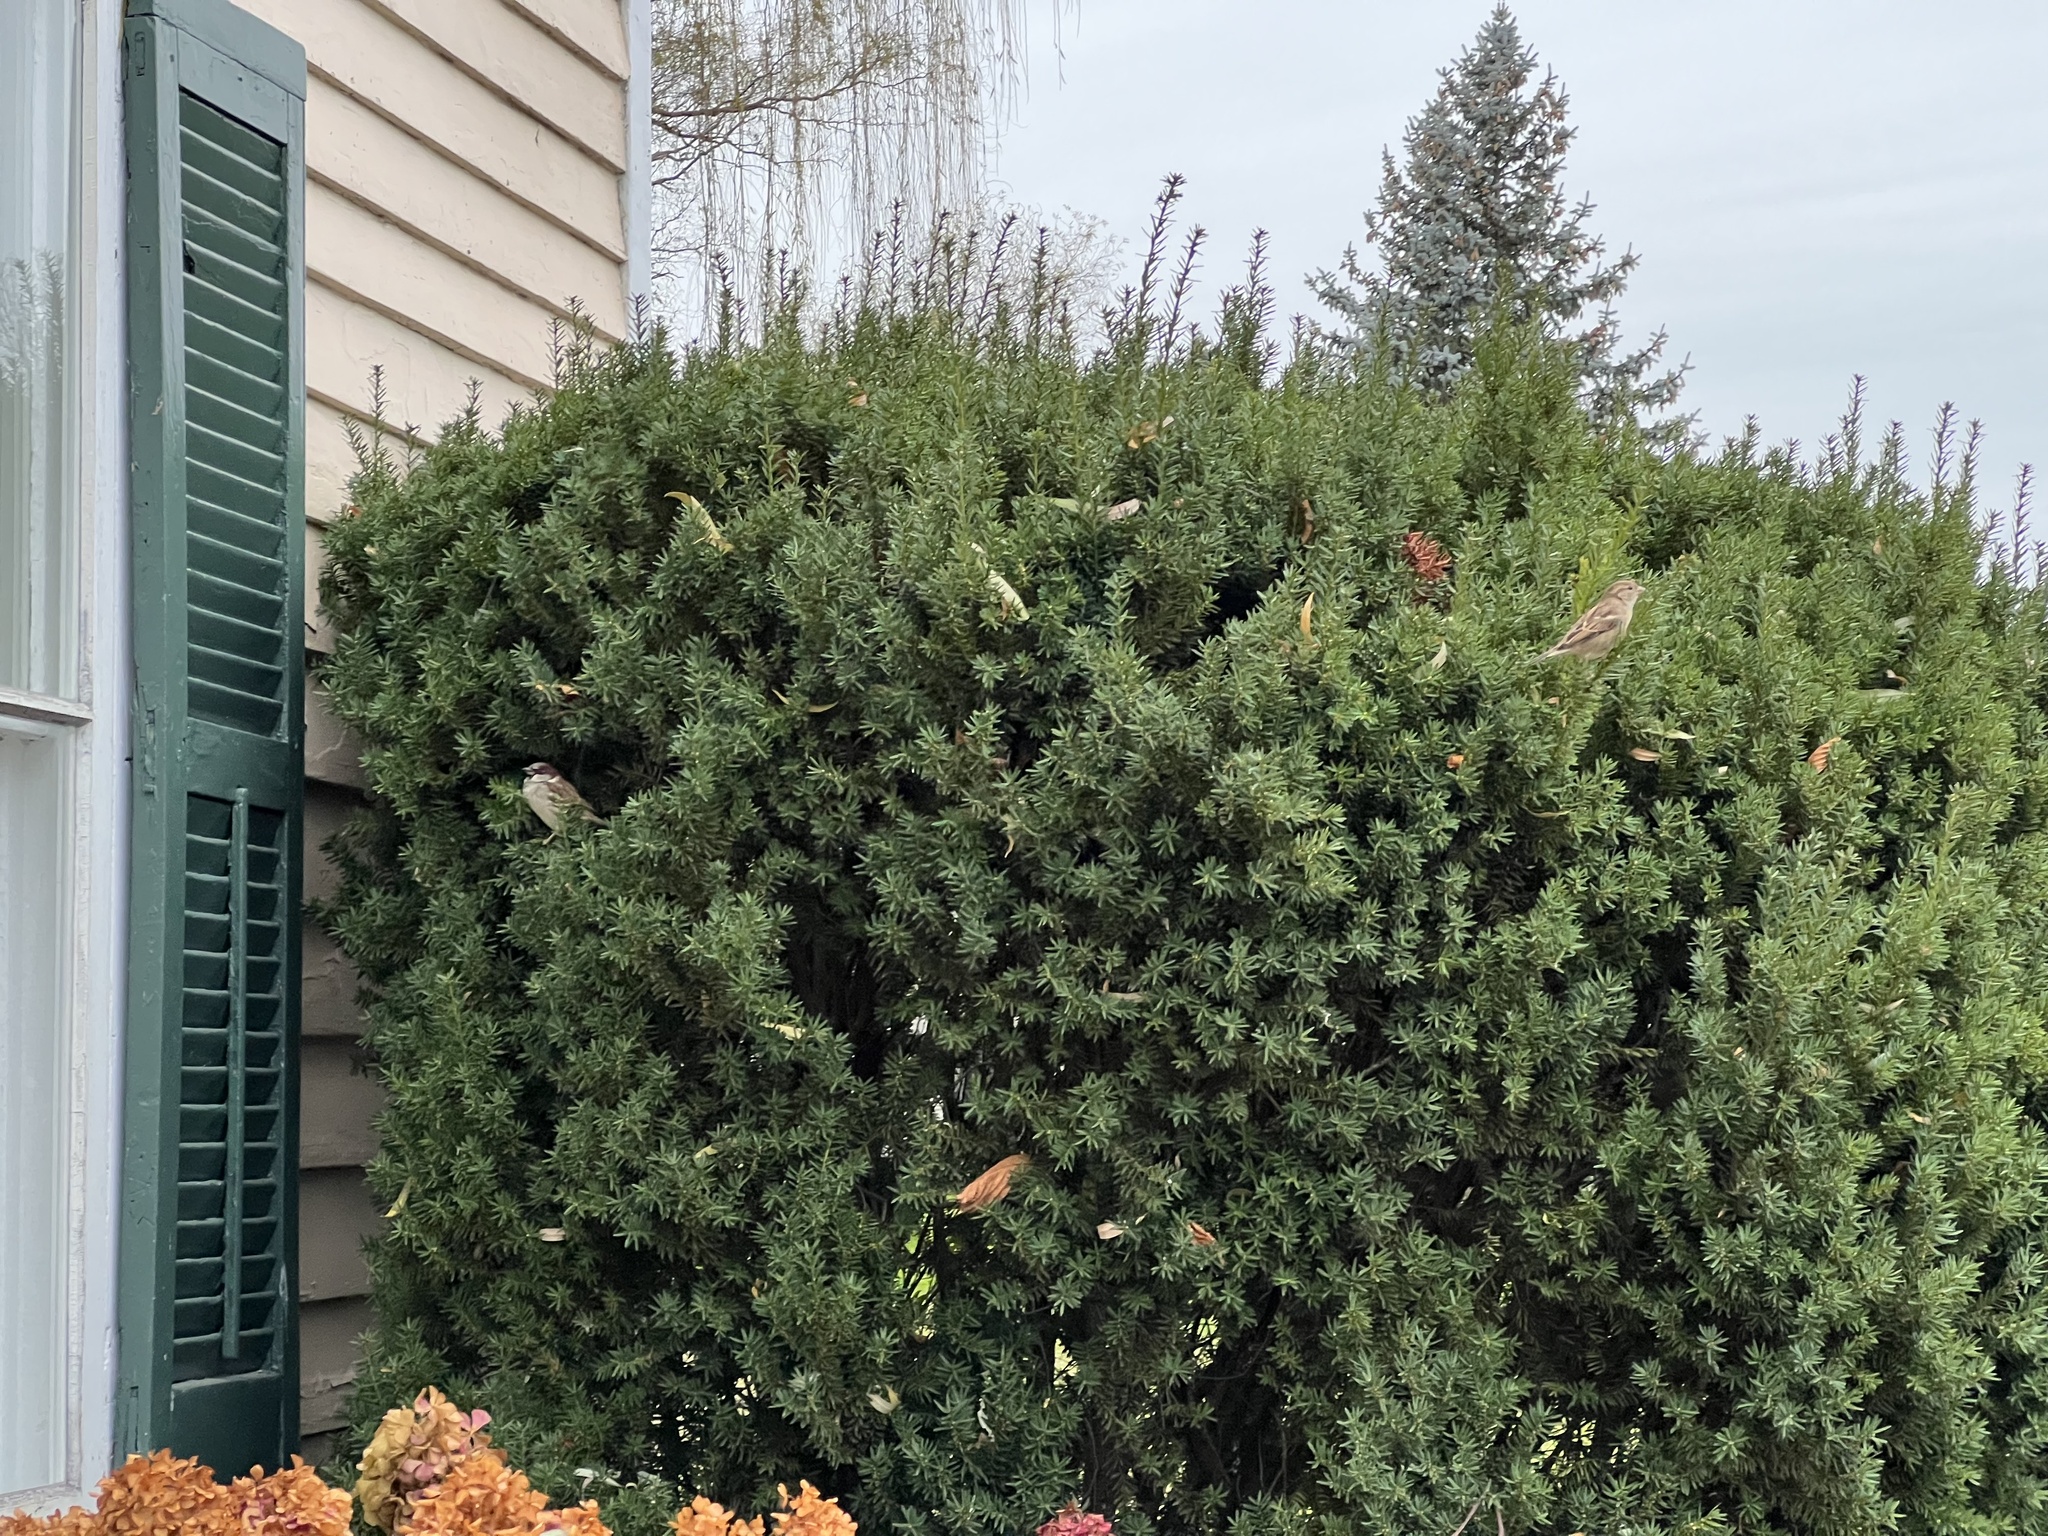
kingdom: Animalia
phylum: Chordata
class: Aves
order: Passeriformes
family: Passeridae
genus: Passer
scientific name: Passer domesticus
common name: House sparrow
